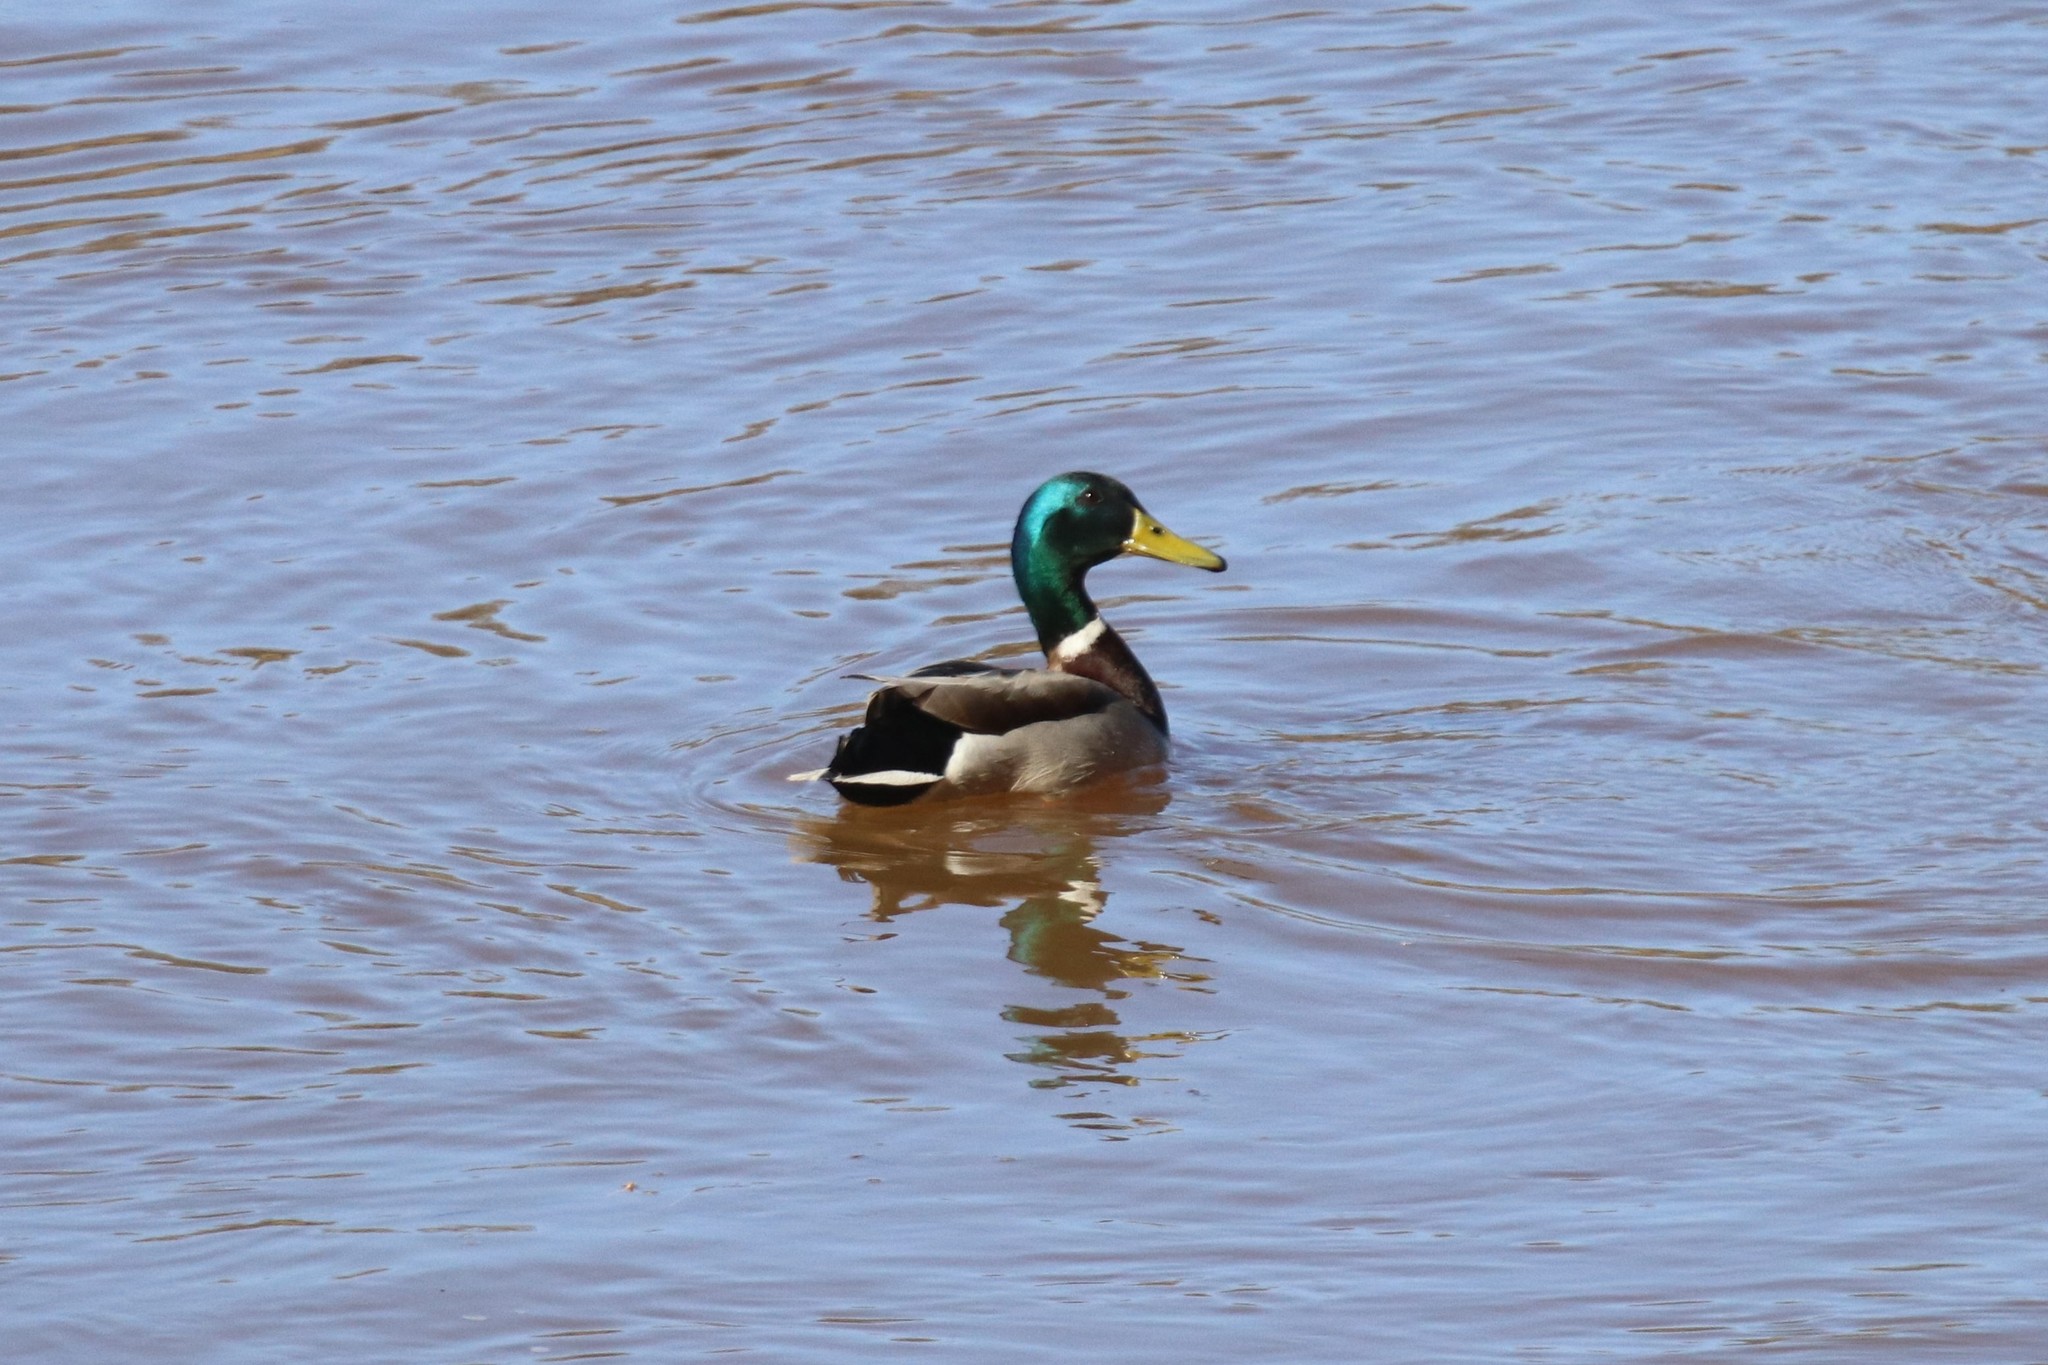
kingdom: Animalia
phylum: Chordata
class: Aves
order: Anseriformes
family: Anatidae
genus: Anas
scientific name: Anas platyrhynchos
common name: Mallard
